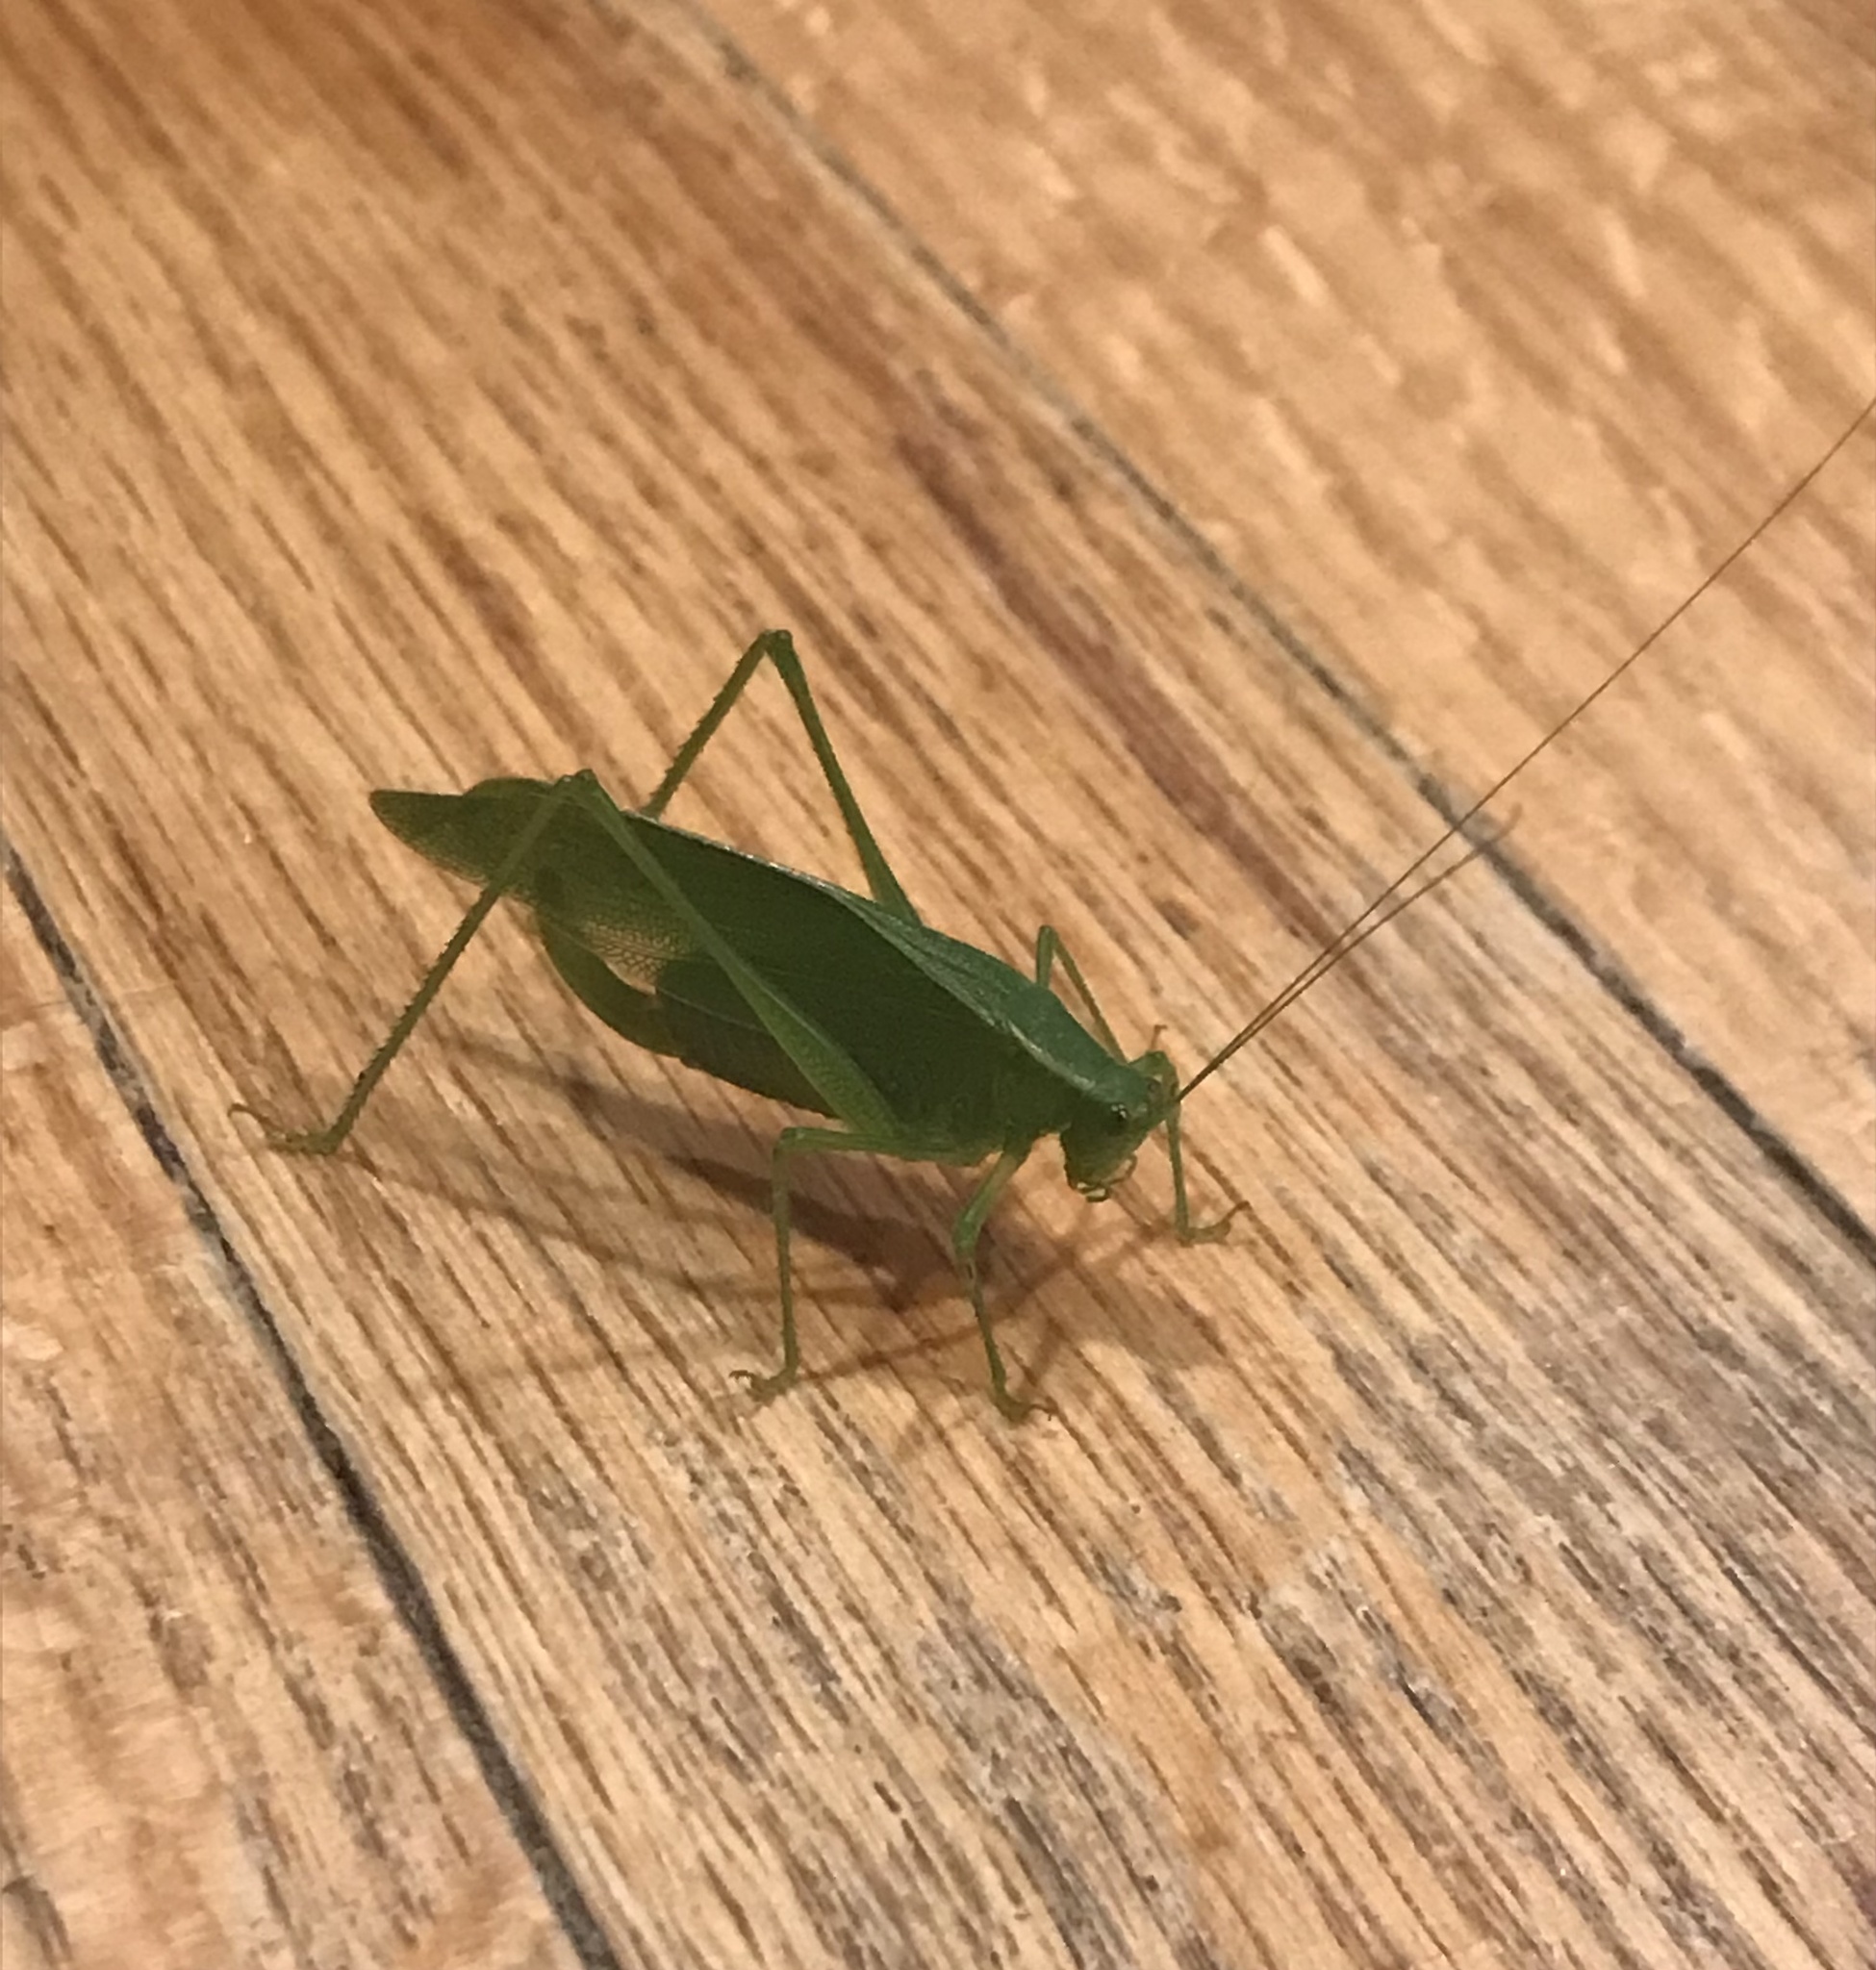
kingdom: Animalia
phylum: Arthropoda
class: Insecta
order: Orthoptera
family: Tettigoniidae
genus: Scudderia
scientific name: Scudderia septentrionalis
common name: Northern bush-katydid
